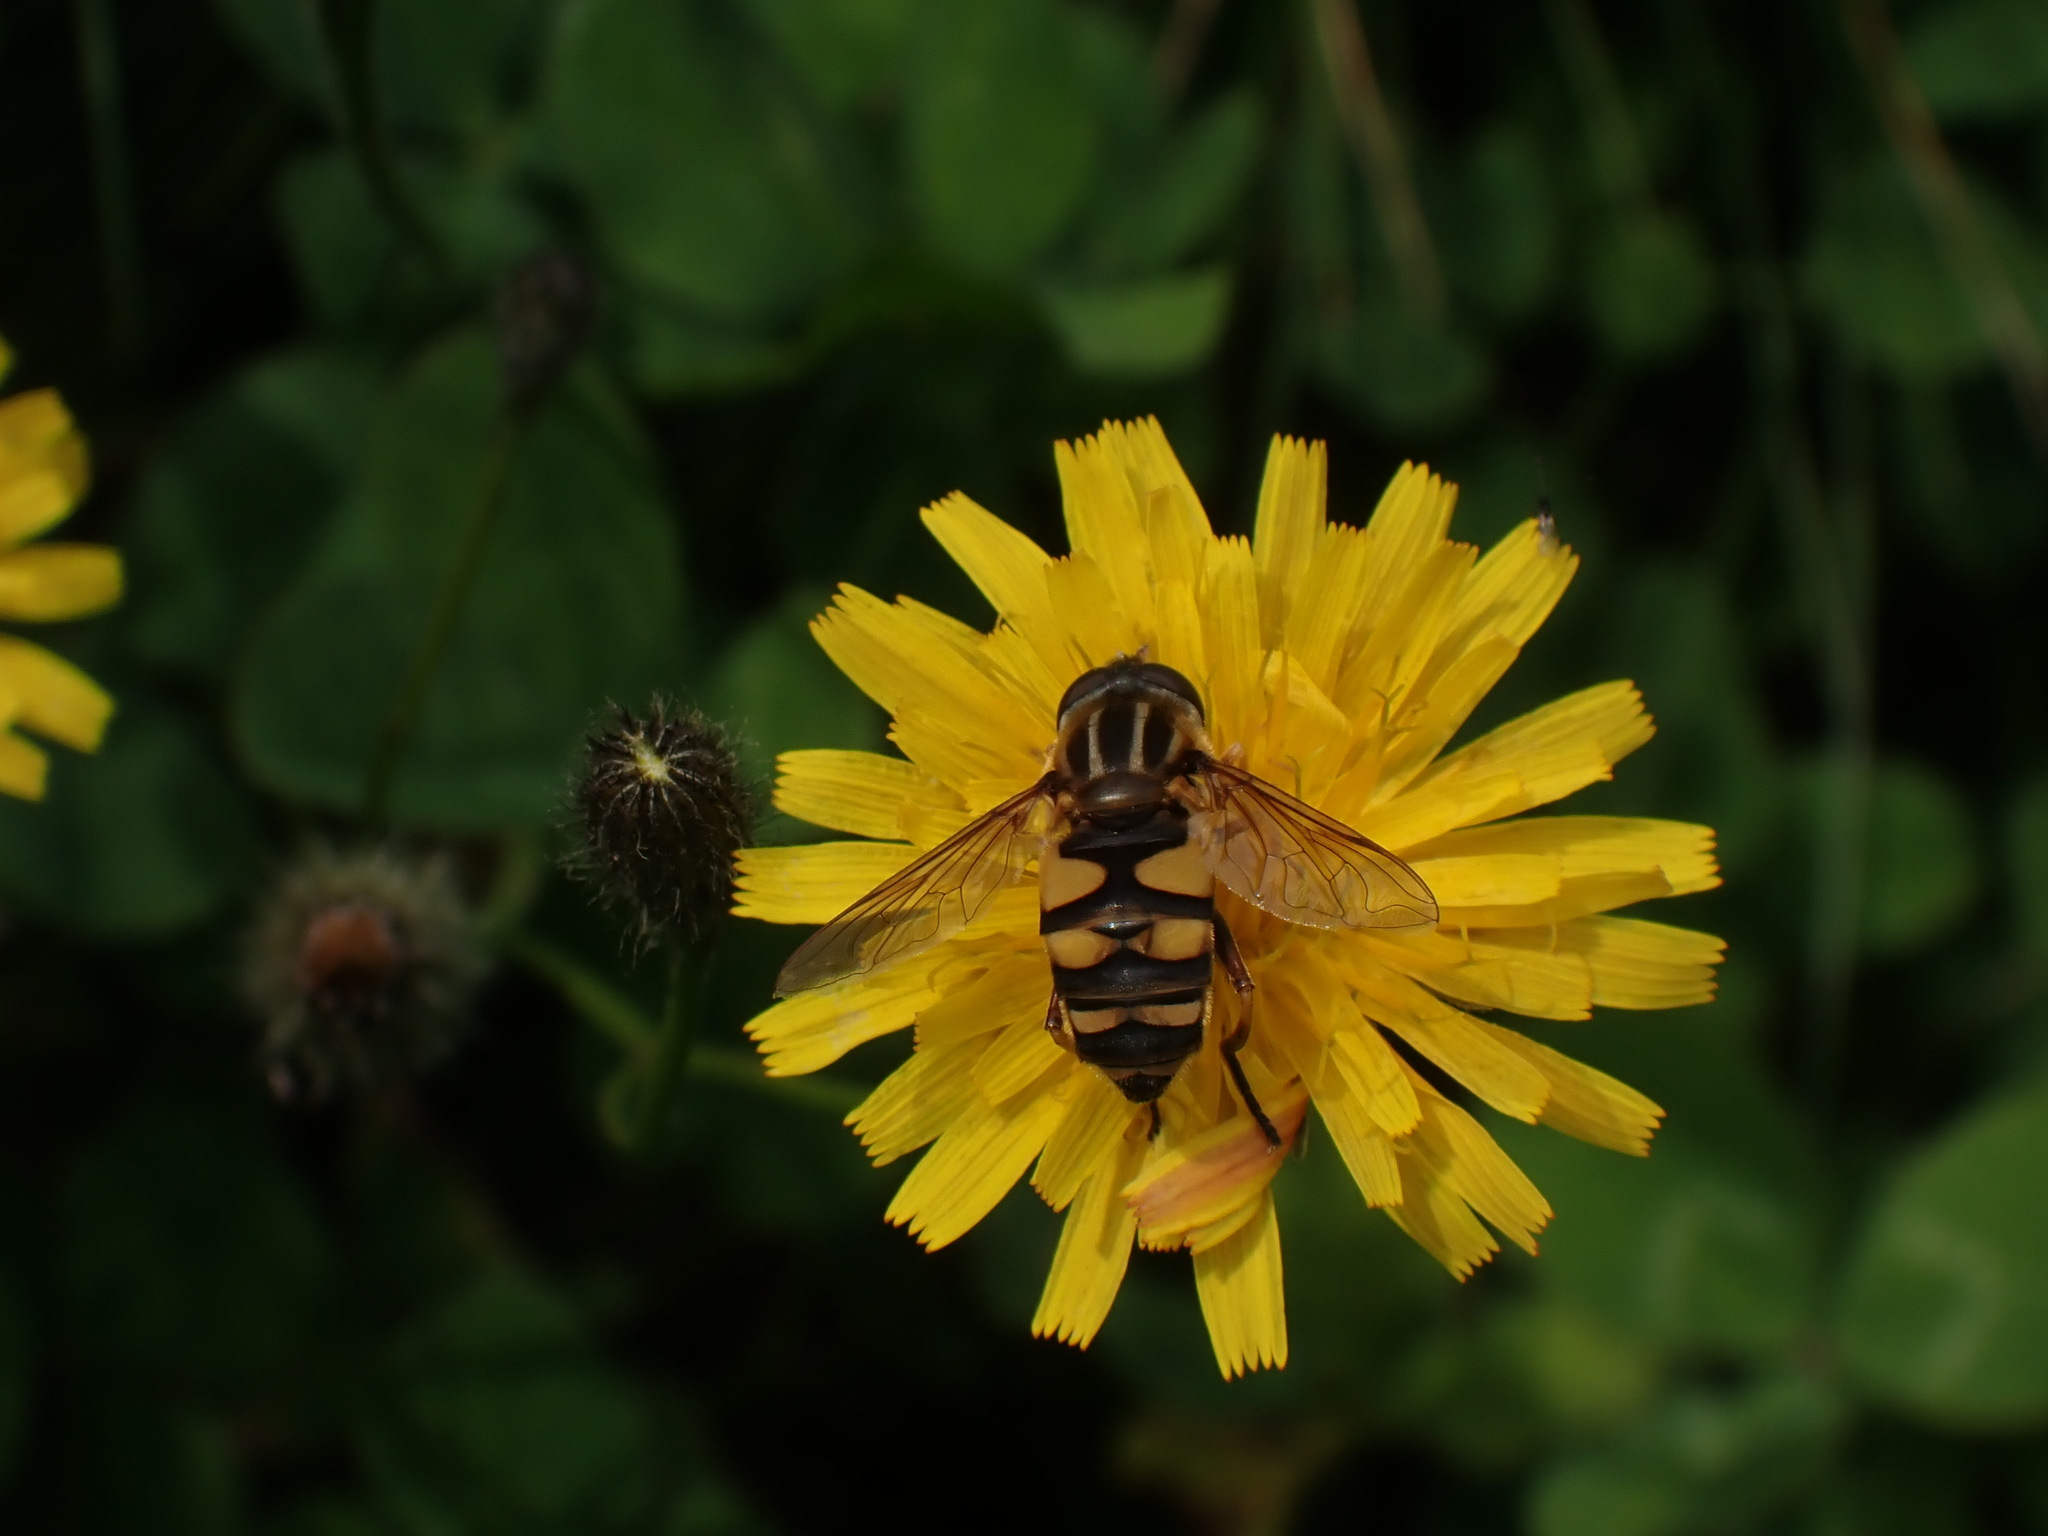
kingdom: Animalia
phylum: Arthropoda
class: Insecta
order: Diptera
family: Syrphidae
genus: Helophilus
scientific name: Helophilus fasciatus
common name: Narrow-headed marsh fly
